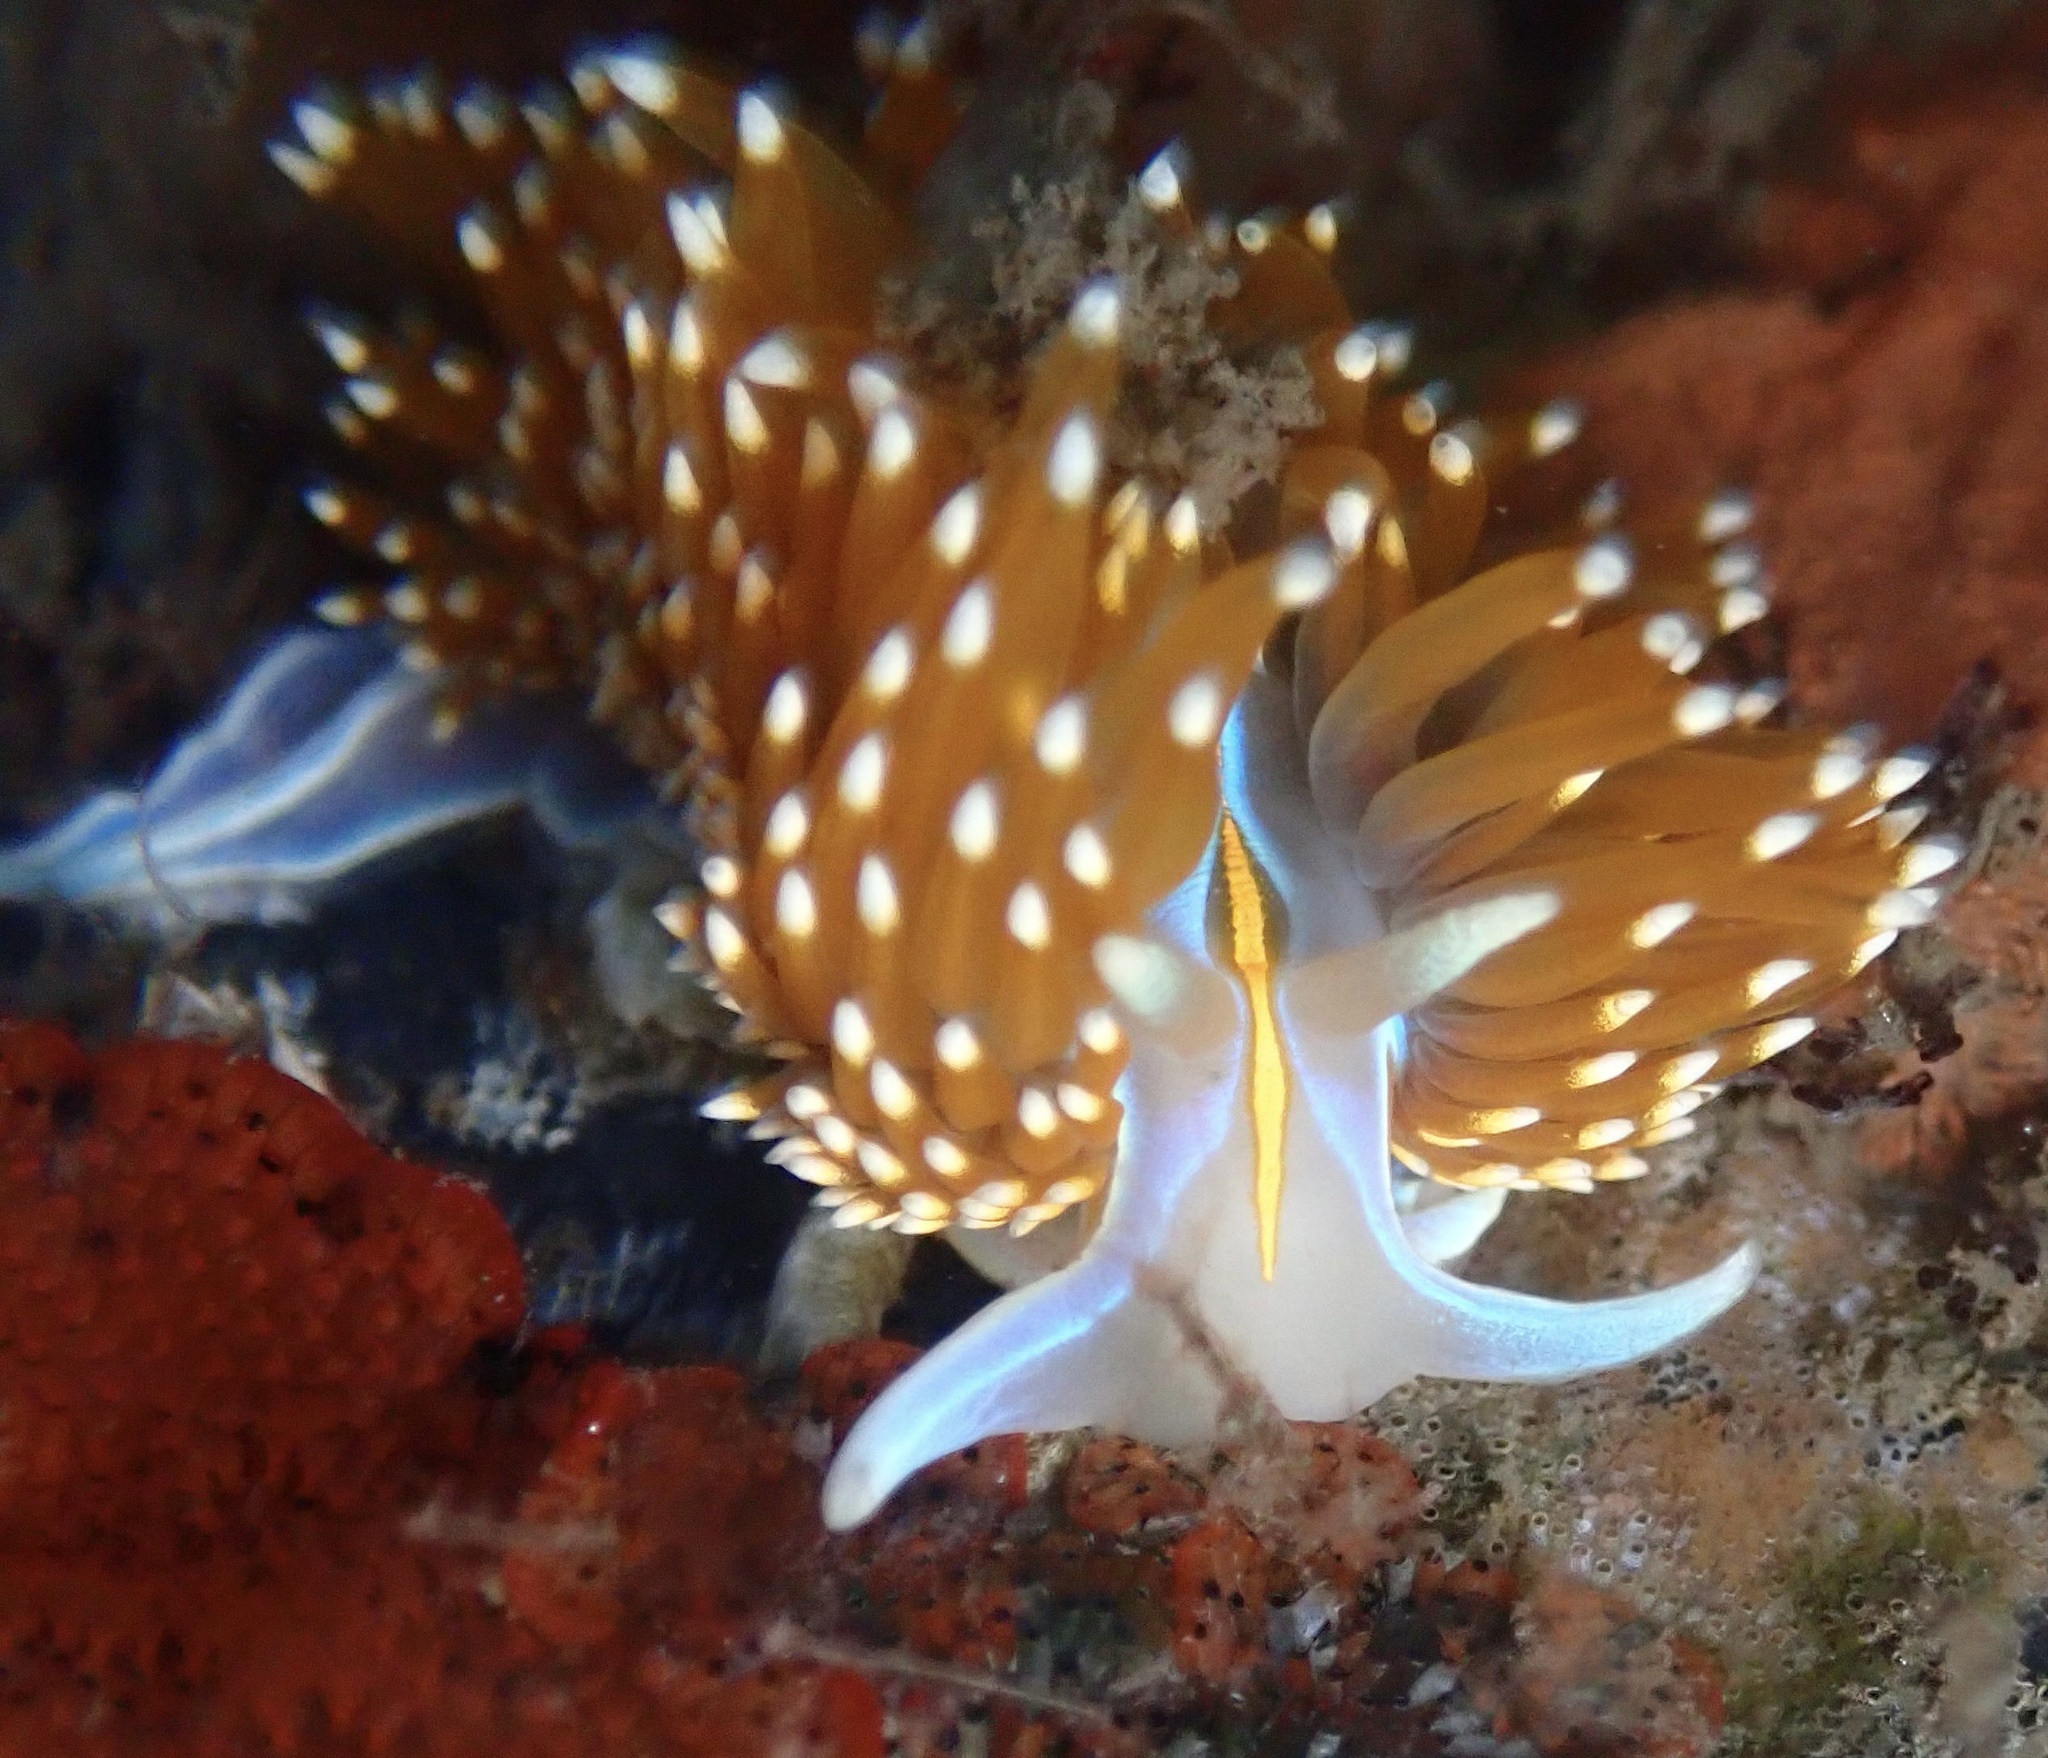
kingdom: Animalia
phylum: Mollusca
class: Gastropoda
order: Nudibranchia
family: Myrrhinidae
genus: Hermissenda
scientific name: Hermissenda opalescens
